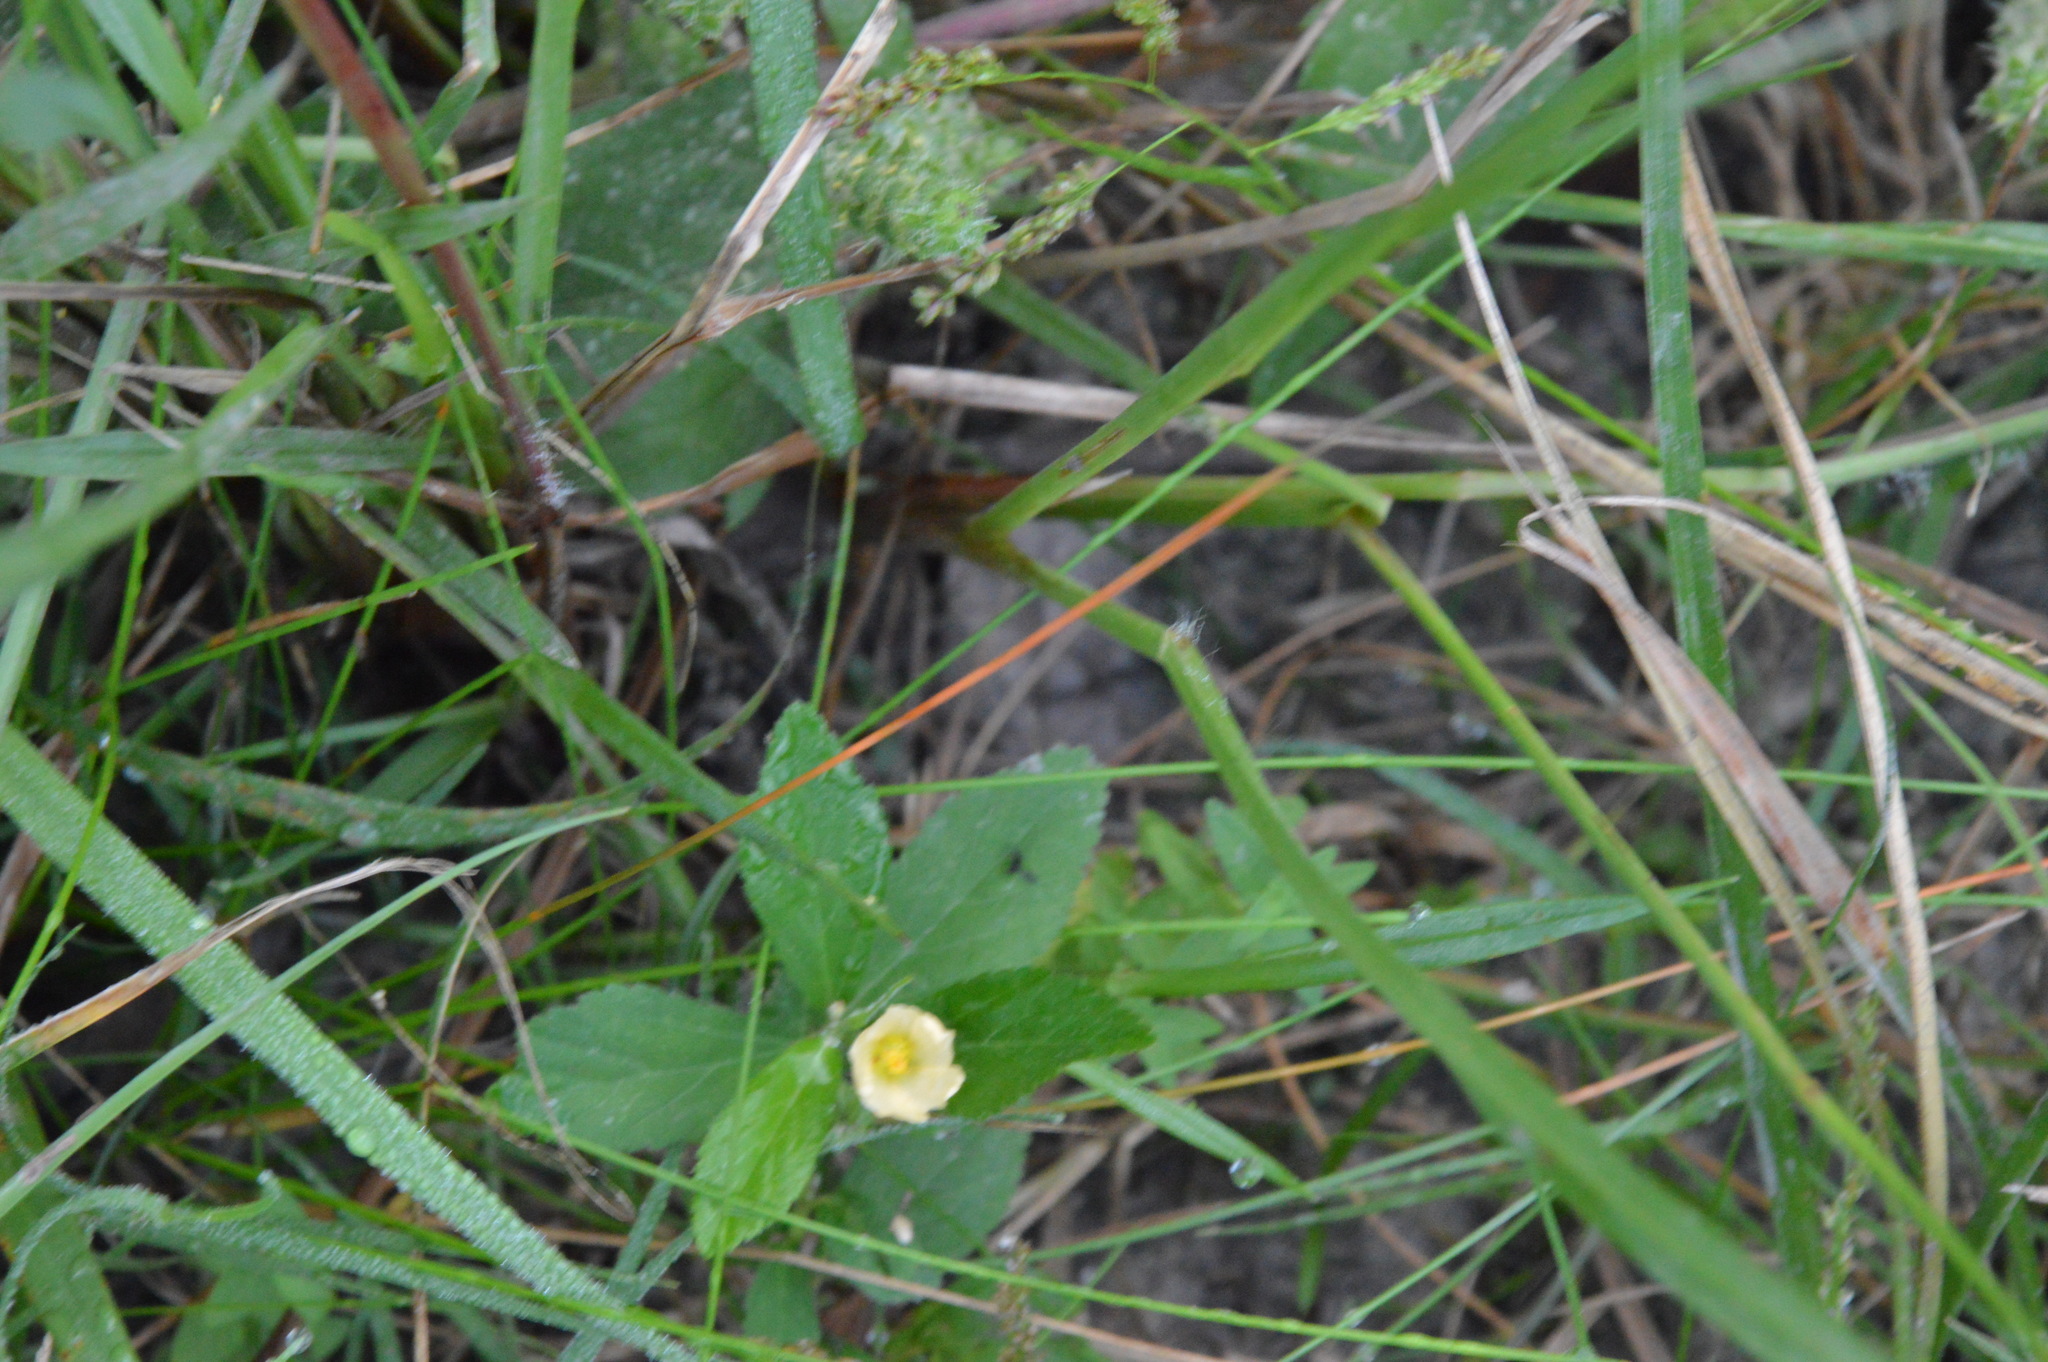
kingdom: Plantae
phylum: Tracheophyta
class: Magnoliopsida
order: Malvales
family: Malvaceae
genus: Sida
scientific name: Sida rhombifolia
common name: Queensland-hemp
